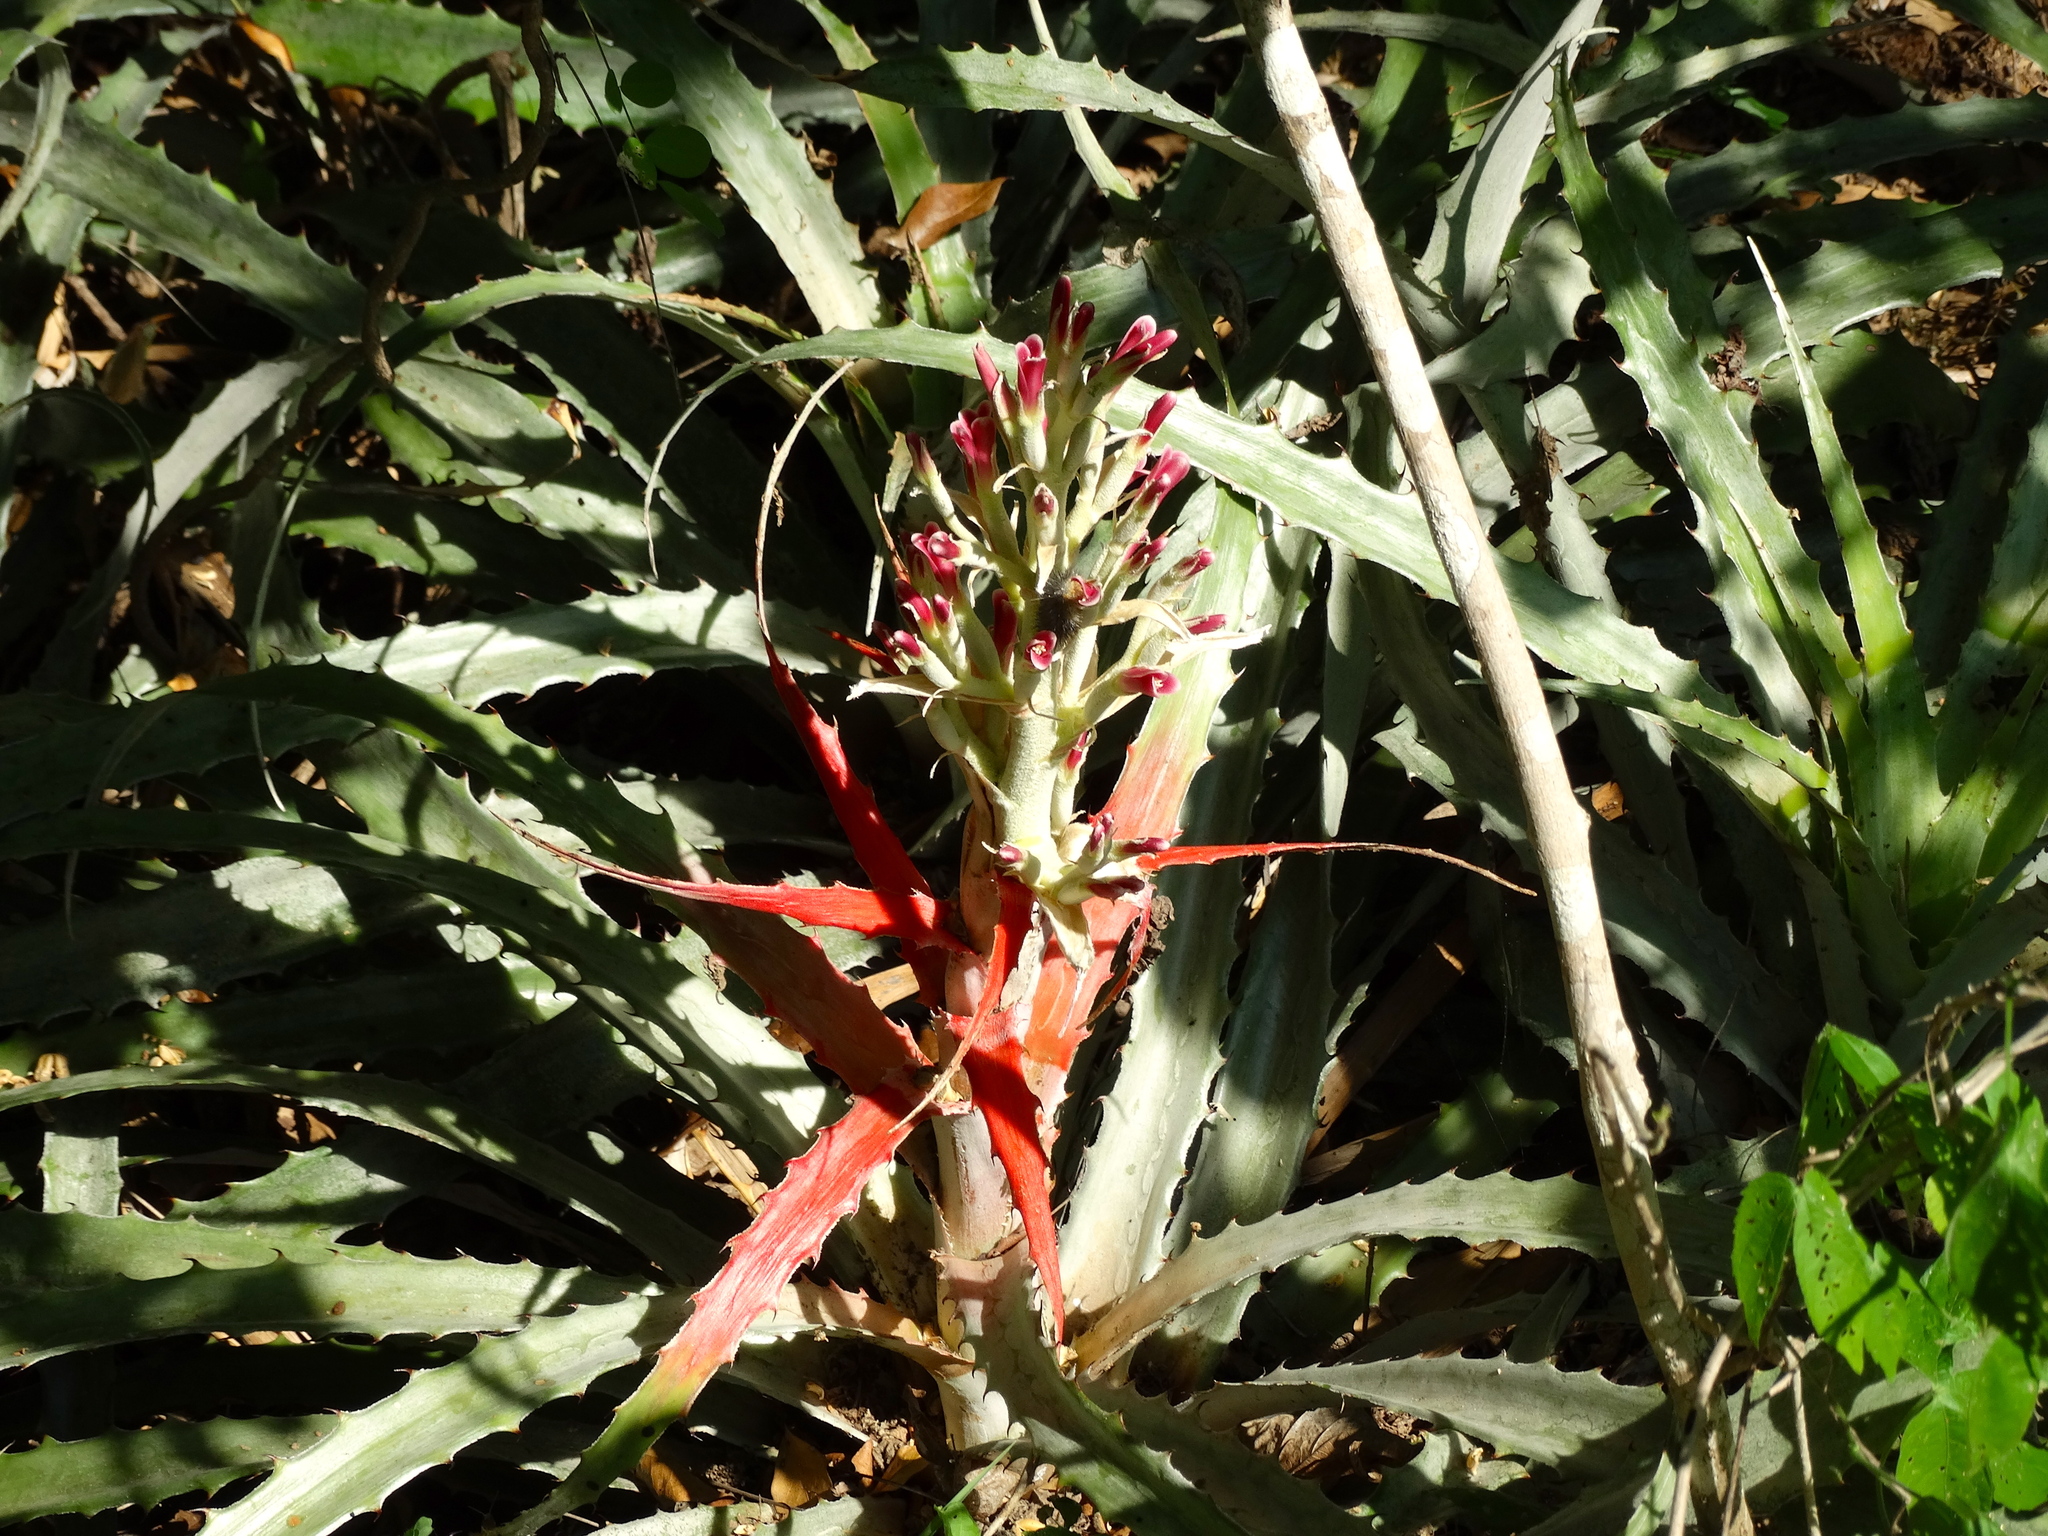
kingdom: Plantae
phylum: Tracheophyta
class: Liliopsida
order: Poales
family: Bromeliaceae
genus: Bromelia
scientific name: Bromelia pinguin
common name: Pinguin
